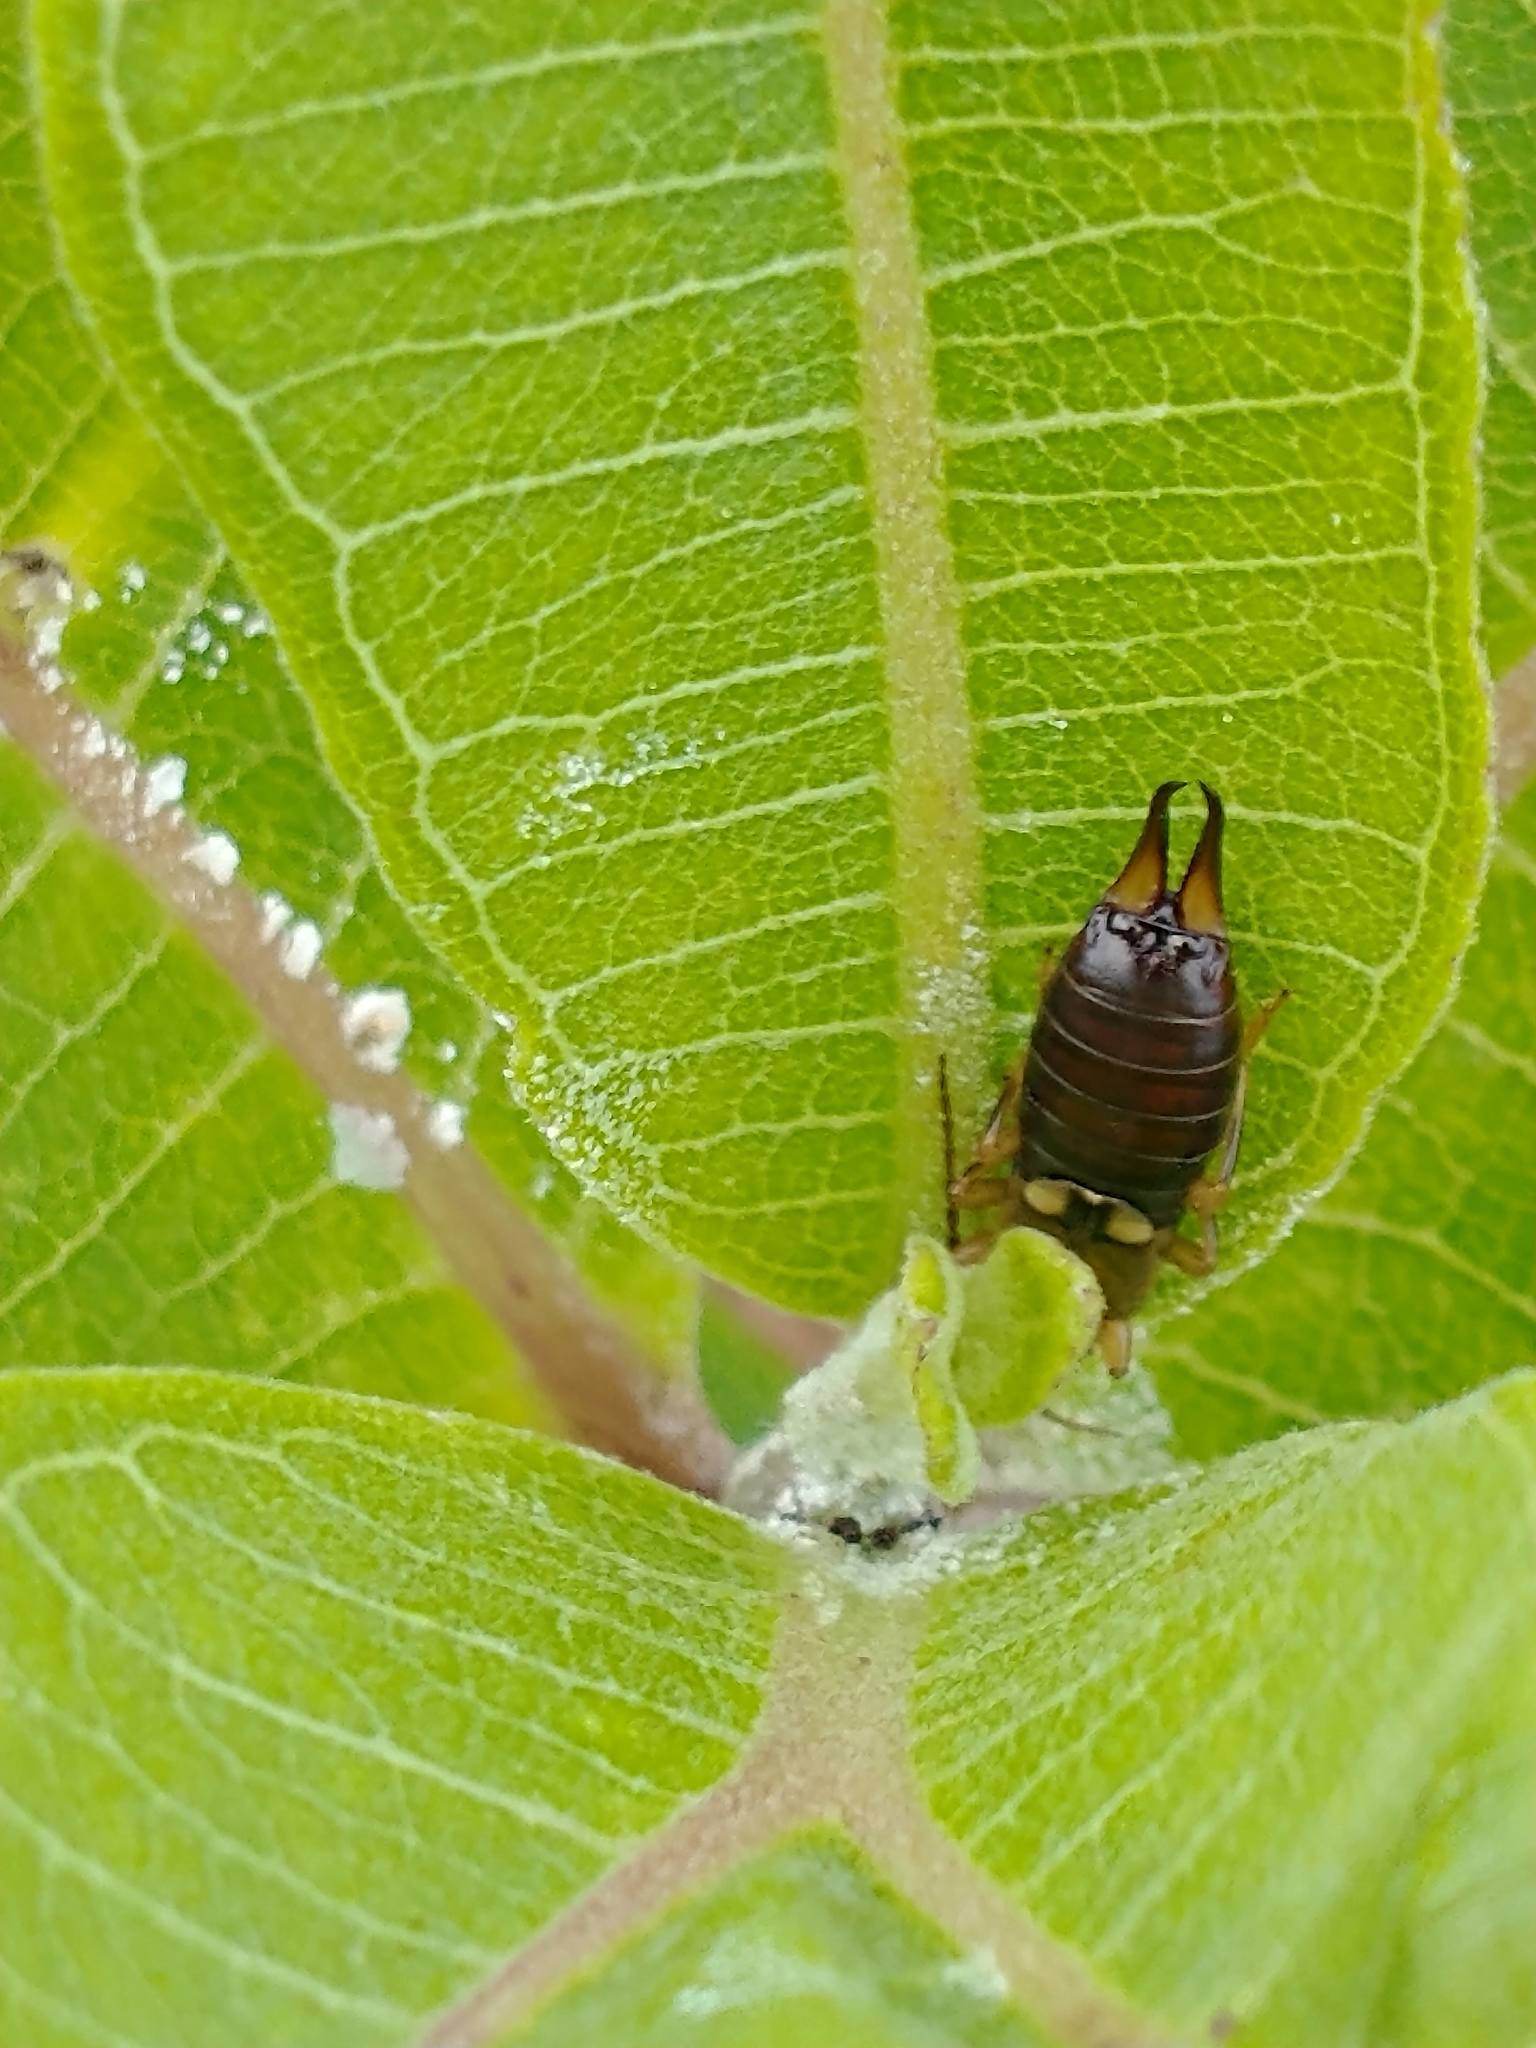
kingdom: Animalia
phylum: Arthropoda
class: Insecta
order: Dermaptera
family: Forficulidae
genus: Forficula
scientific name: Forficula
